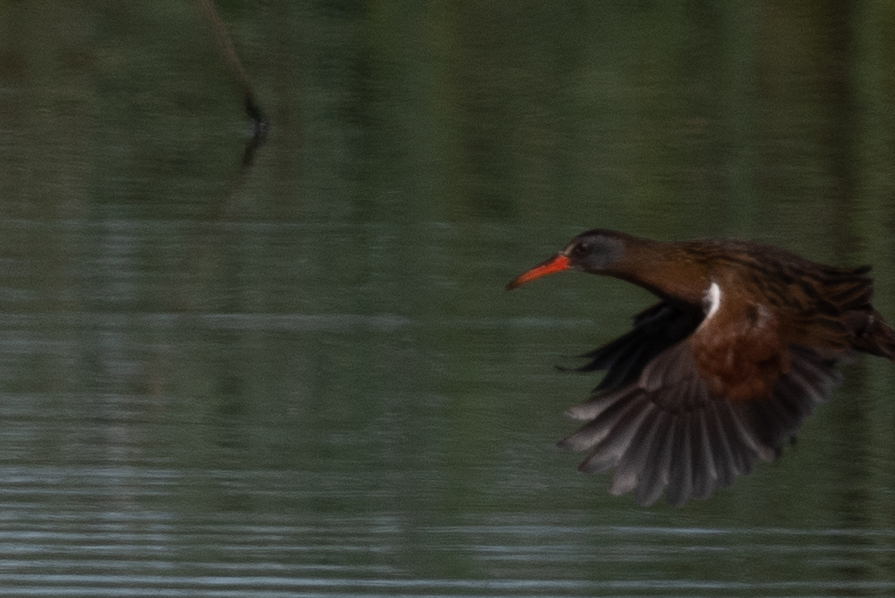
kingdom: Animalia
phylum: Chordata
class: Aves
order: Gruiformes
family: Rallidae
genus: Rallus
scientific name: Rallus limicola
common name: Virginia rail
